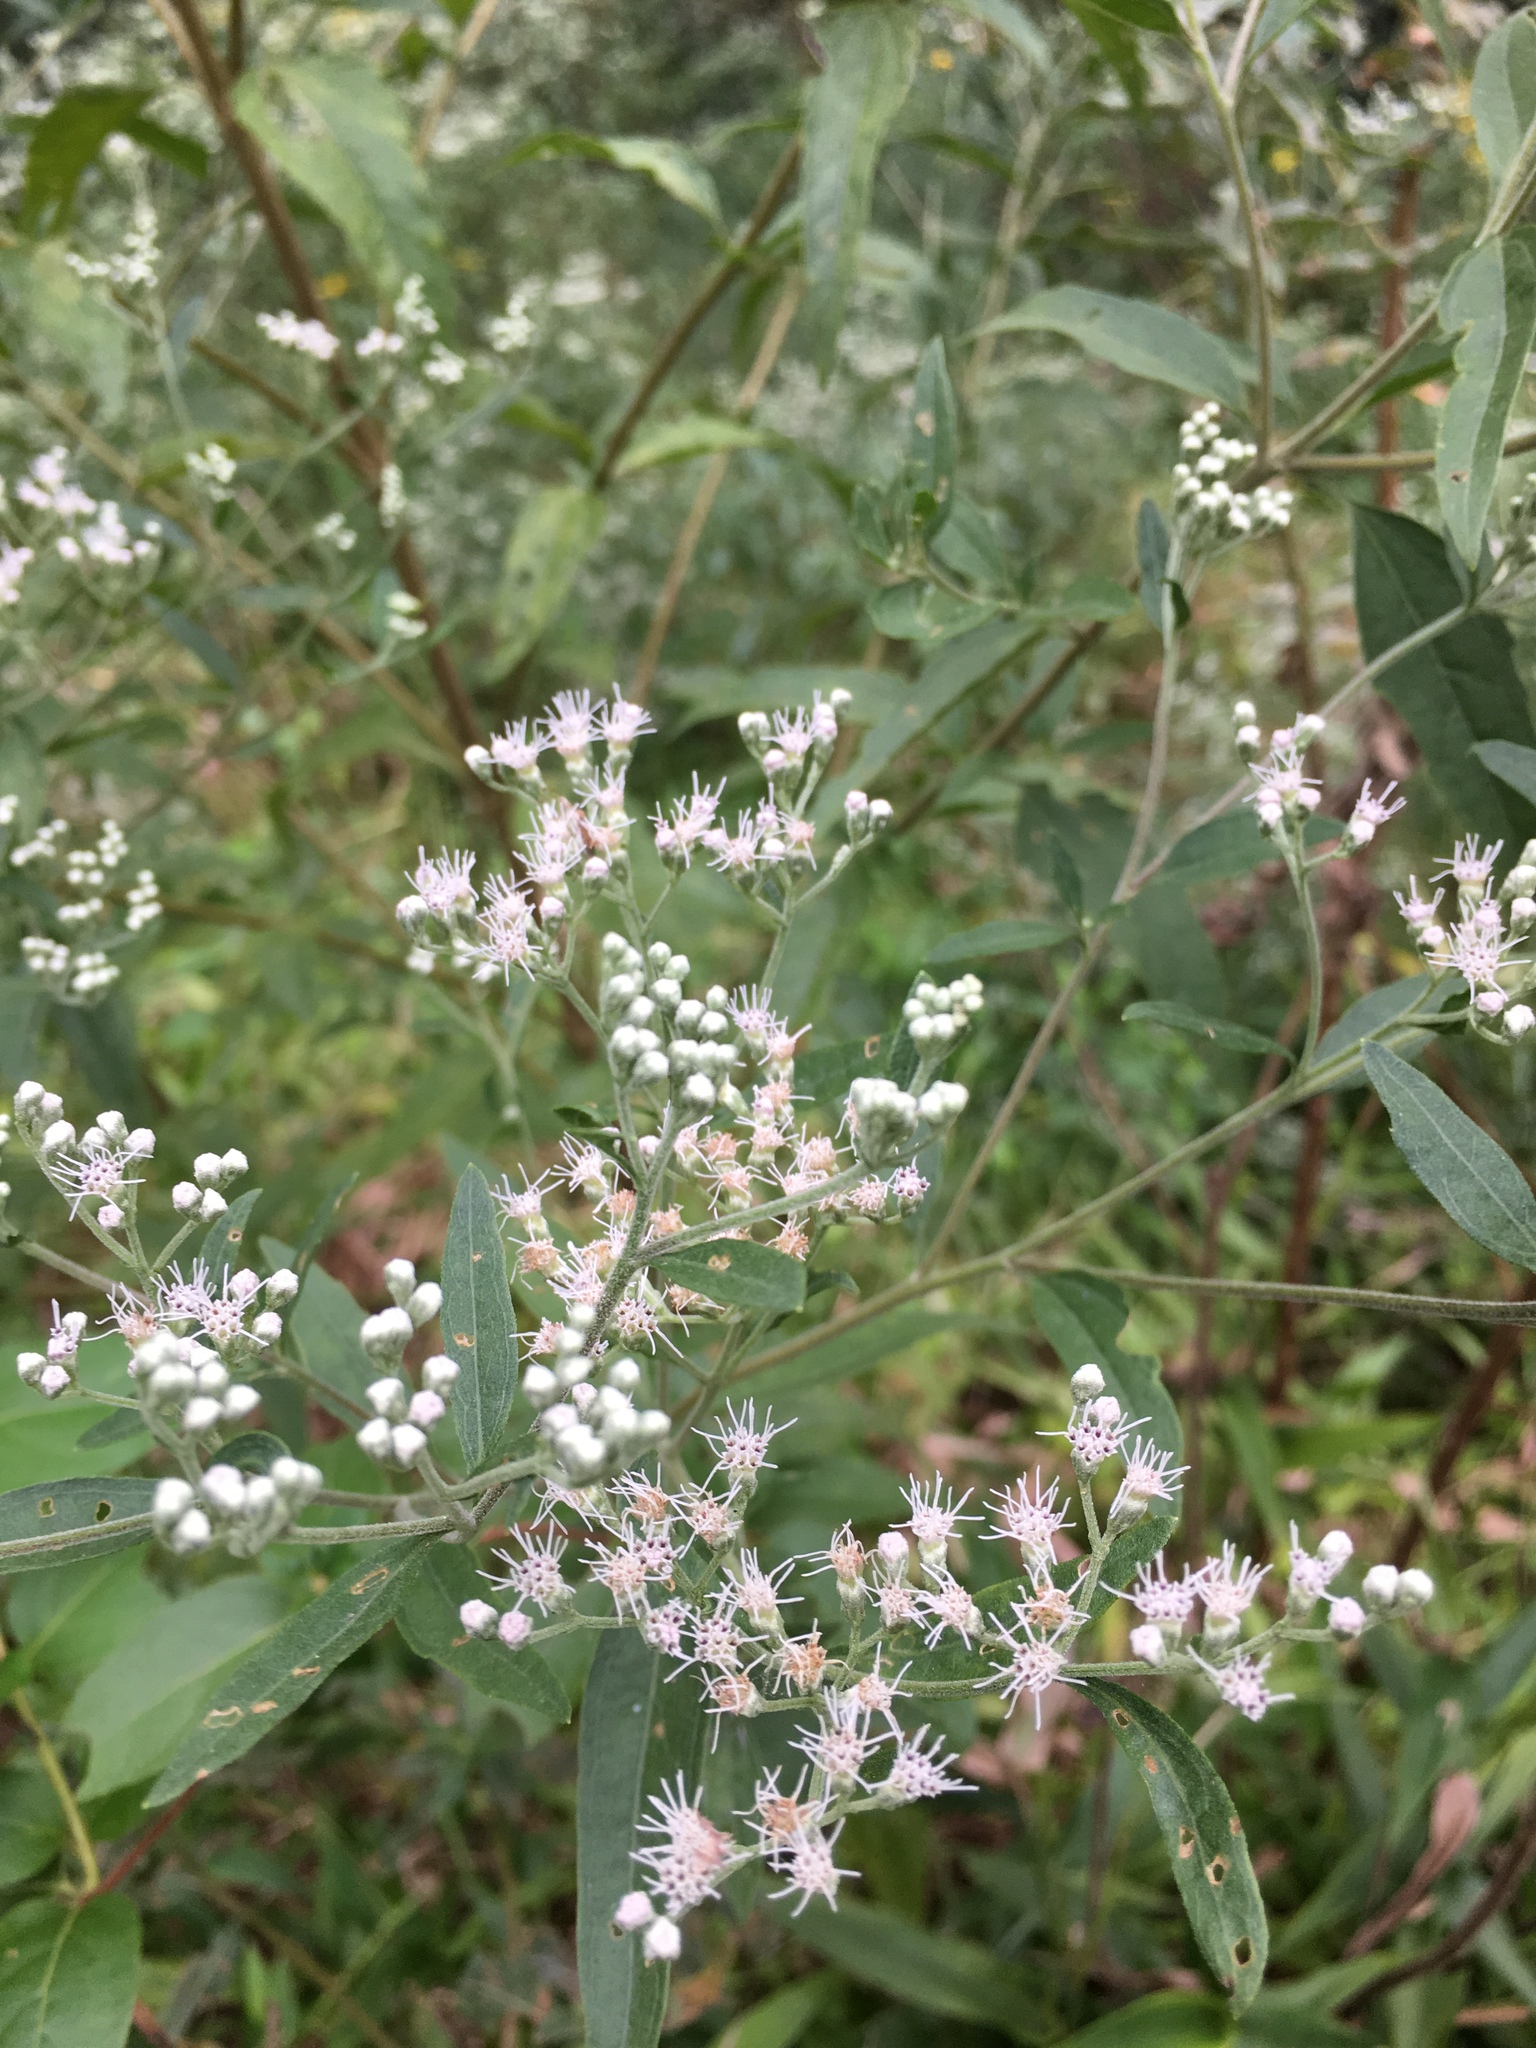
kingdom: Plantae
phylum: Tracheophyta
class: Magnoliopsida
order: Asterales
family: Asteraceae
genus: Eupatorium
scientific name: Eupatorium serotinum
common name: Late boneset
